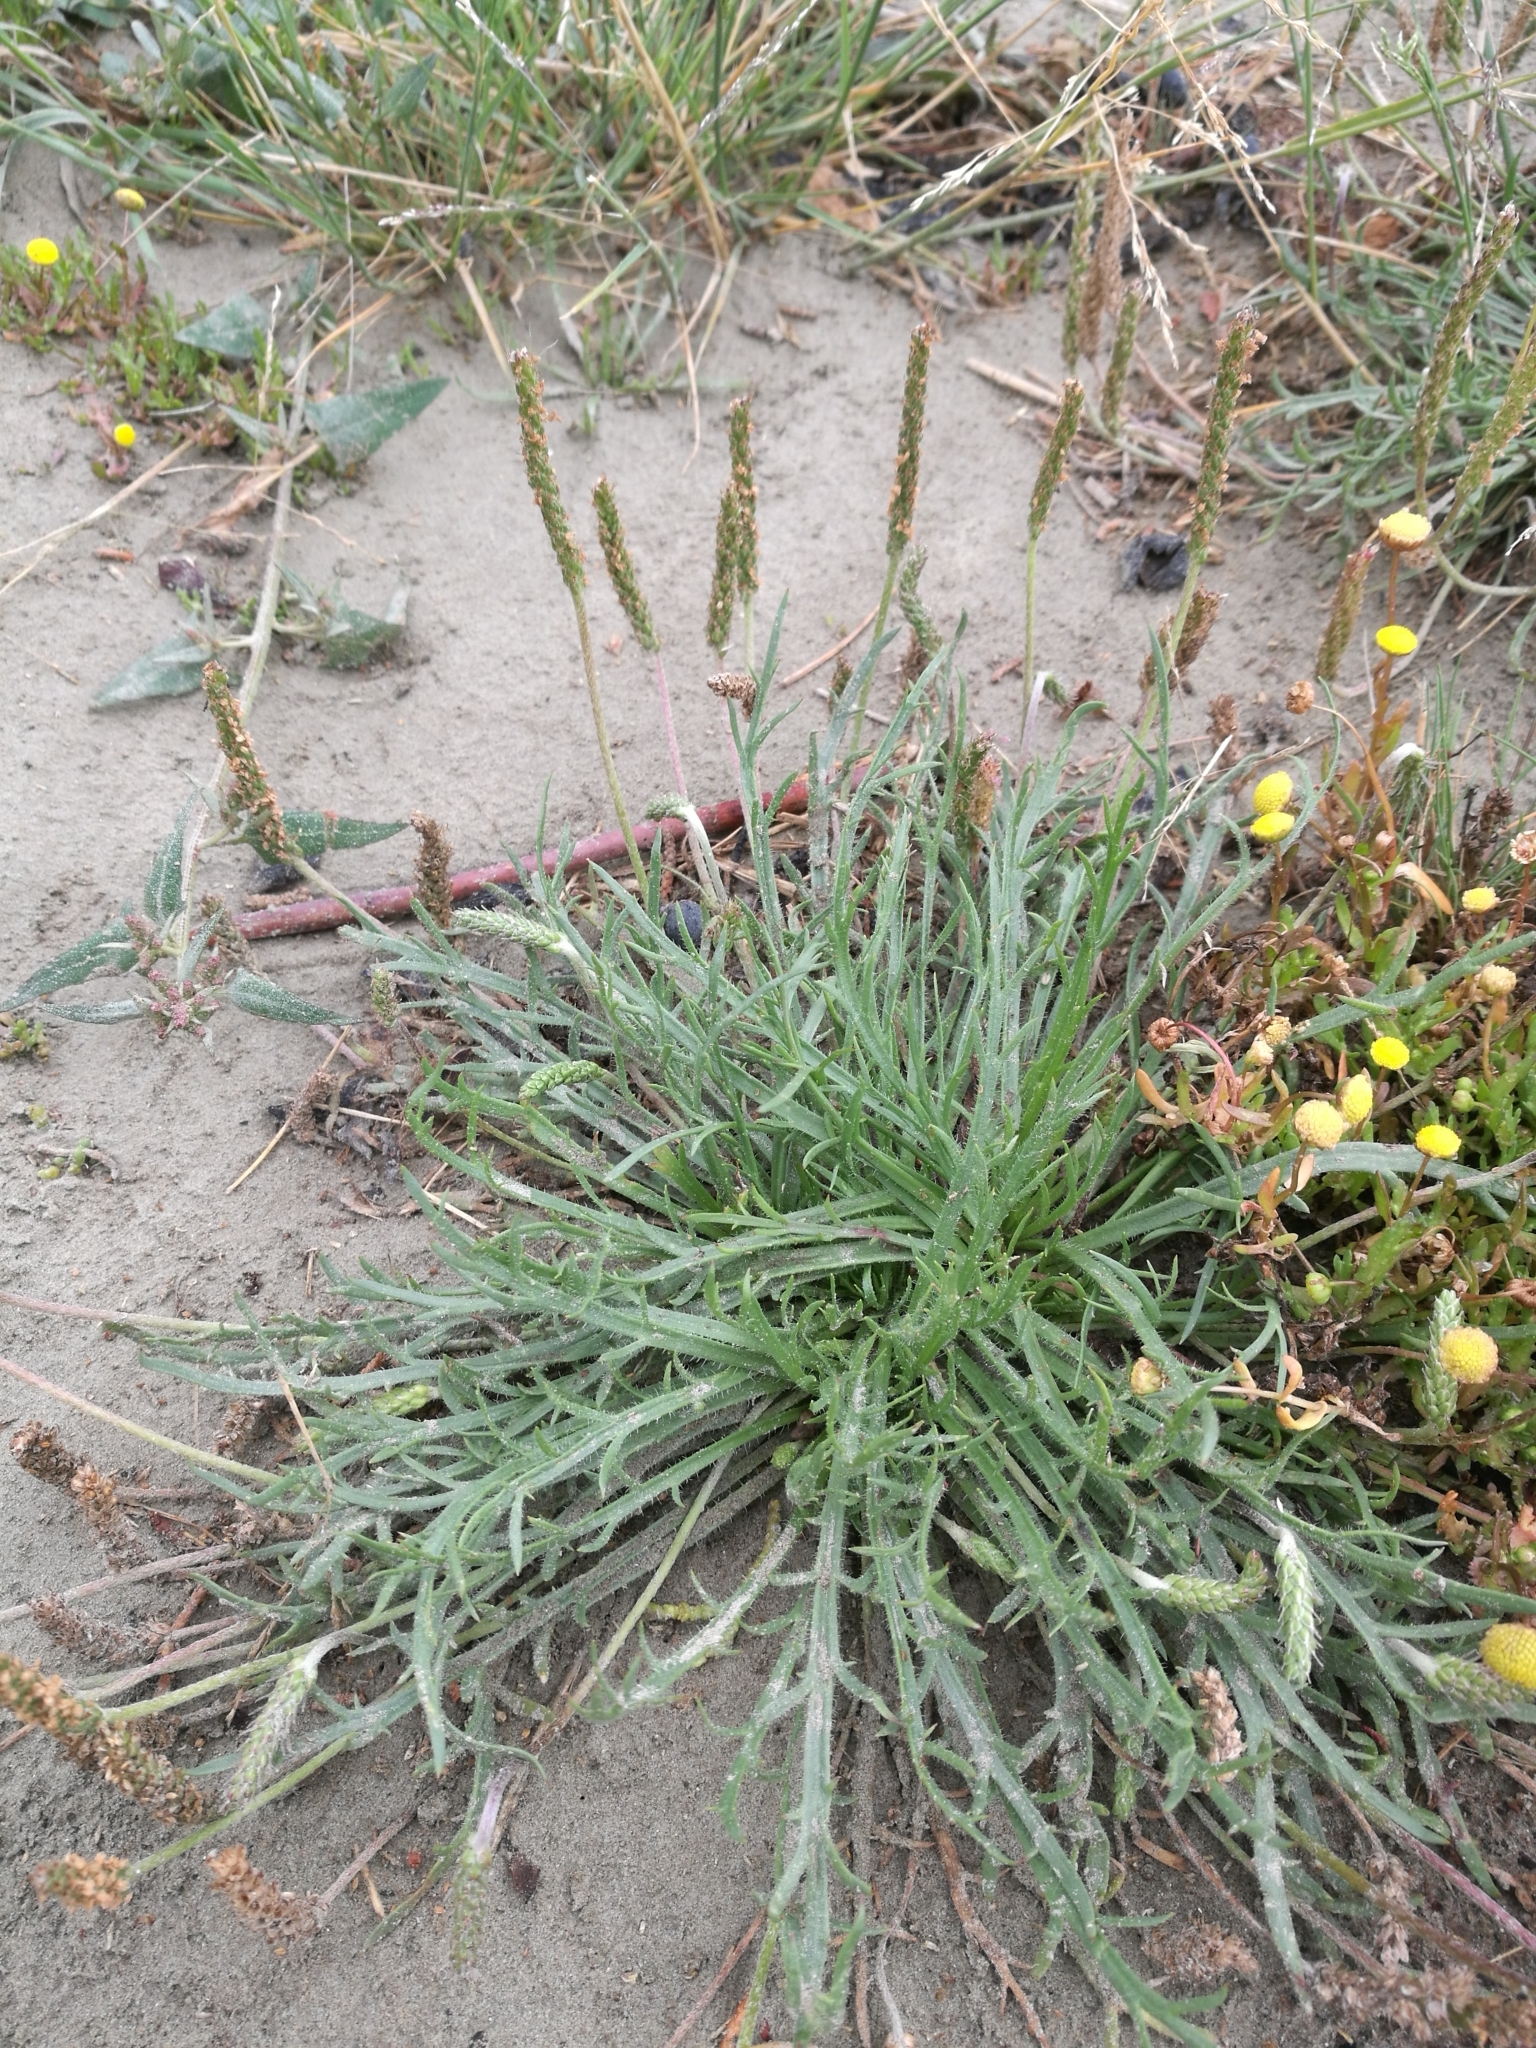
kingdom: Plantae
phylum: Tracheophyta
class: Magnoliopsida
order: Lamiales
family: Plantaginaceae
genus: Plantago
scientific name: Plantago coronopus
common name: Buck's-horn plantain
